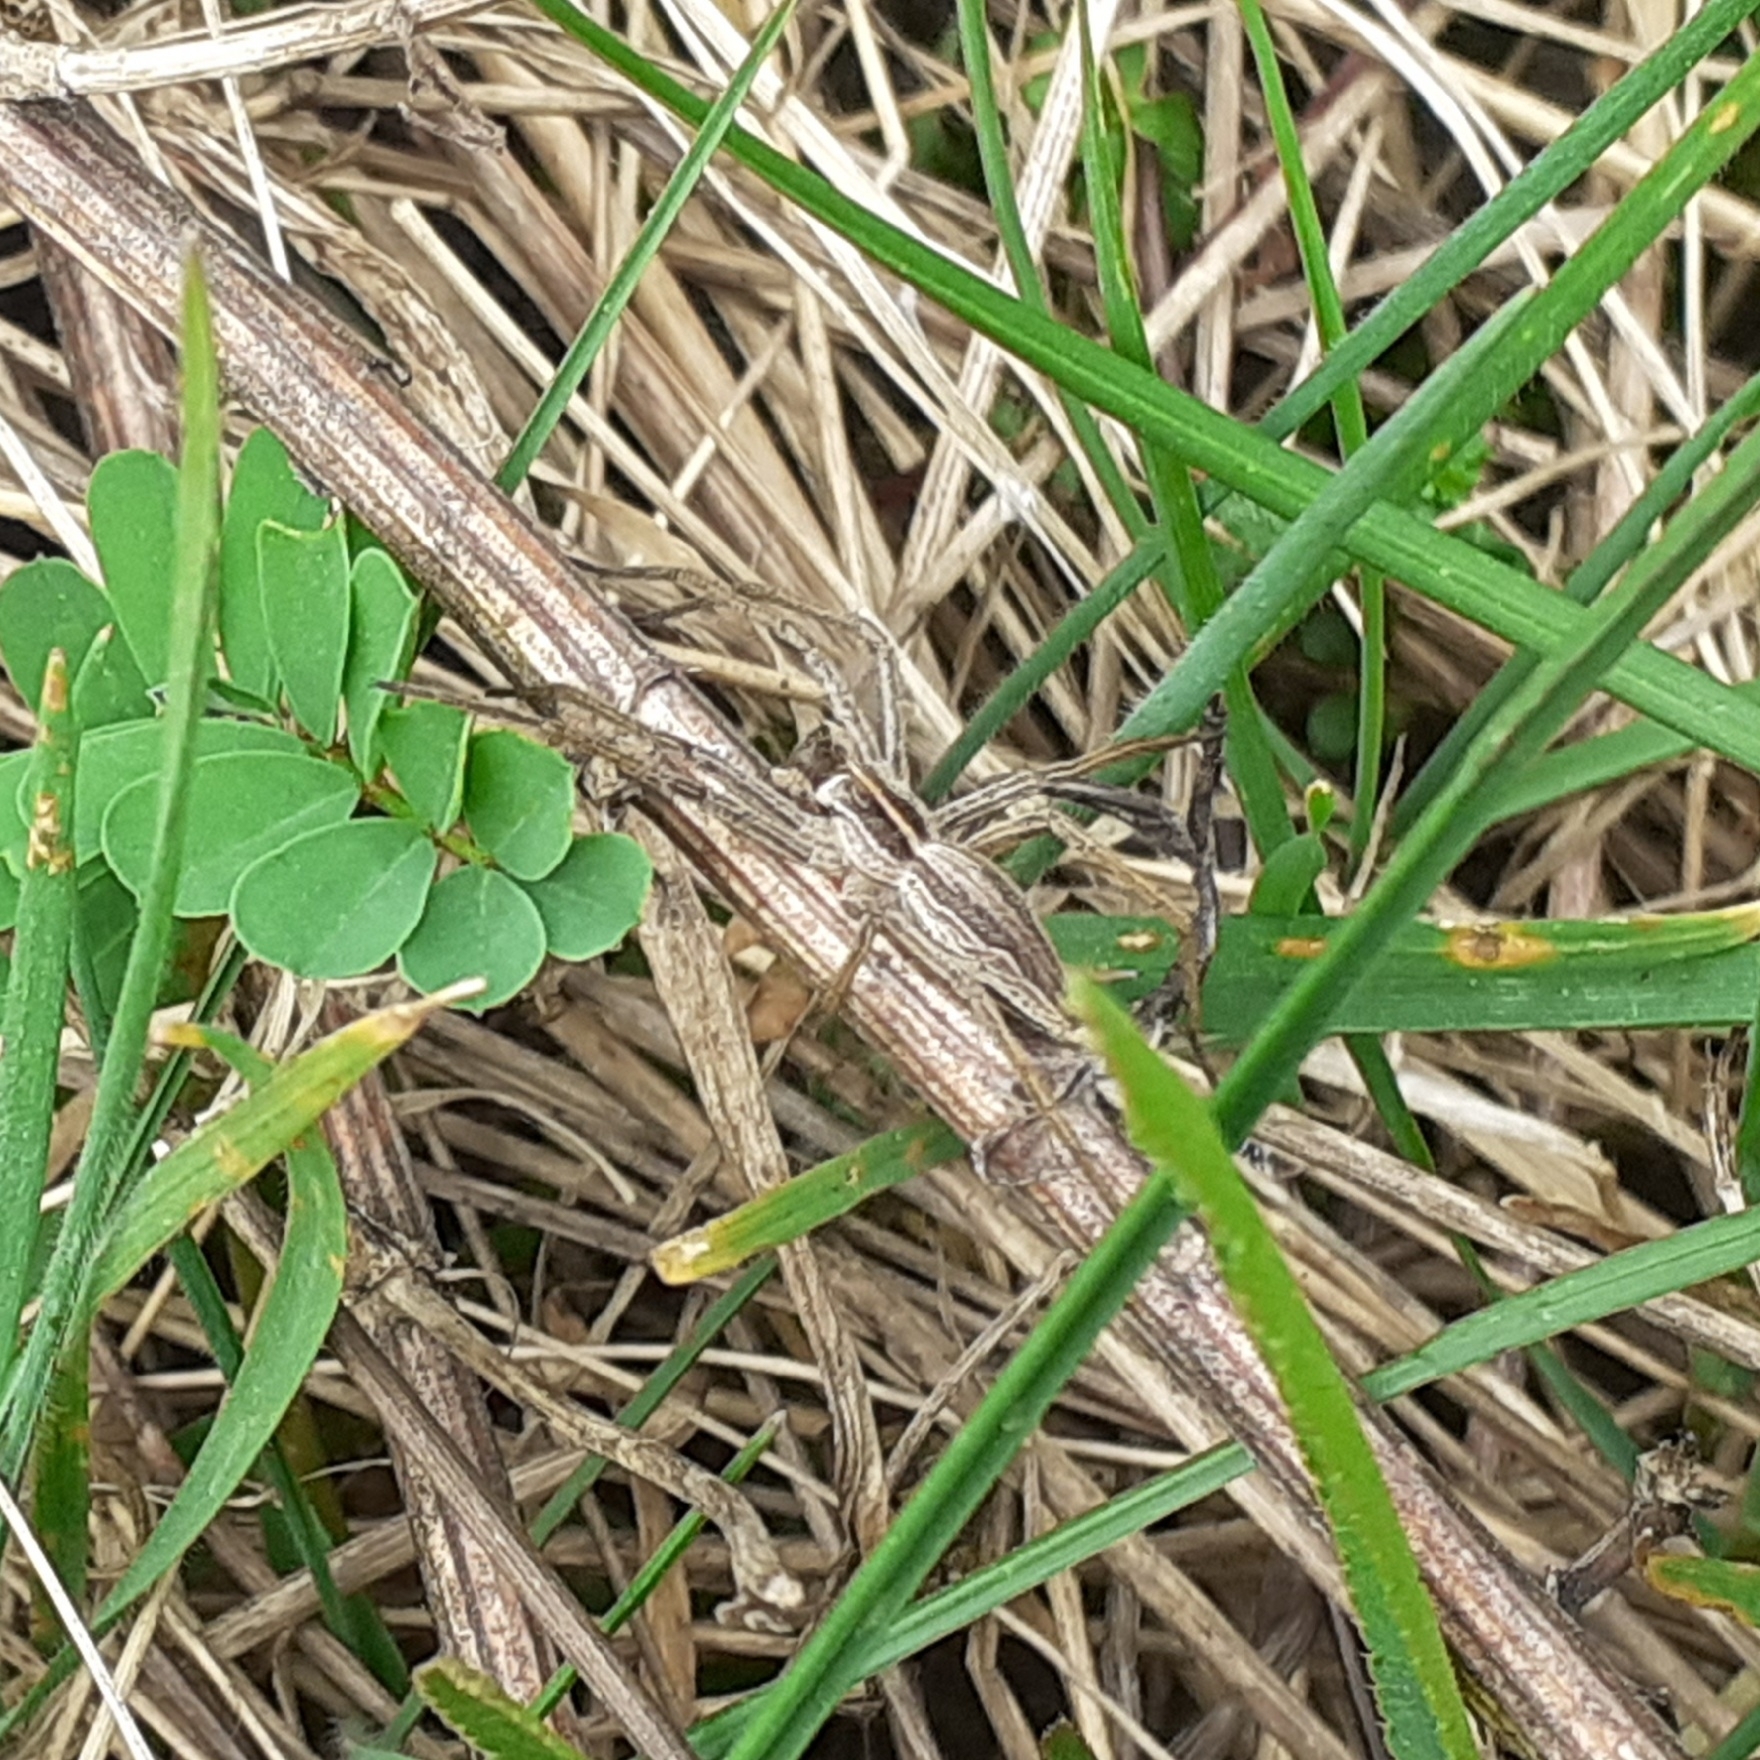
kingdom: Animalia
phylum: Arthropoda
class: Arachnida
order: Araneae
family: Pisauridae
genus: Pisaura
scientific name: Pisaura mirabilis
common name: Tent spider
